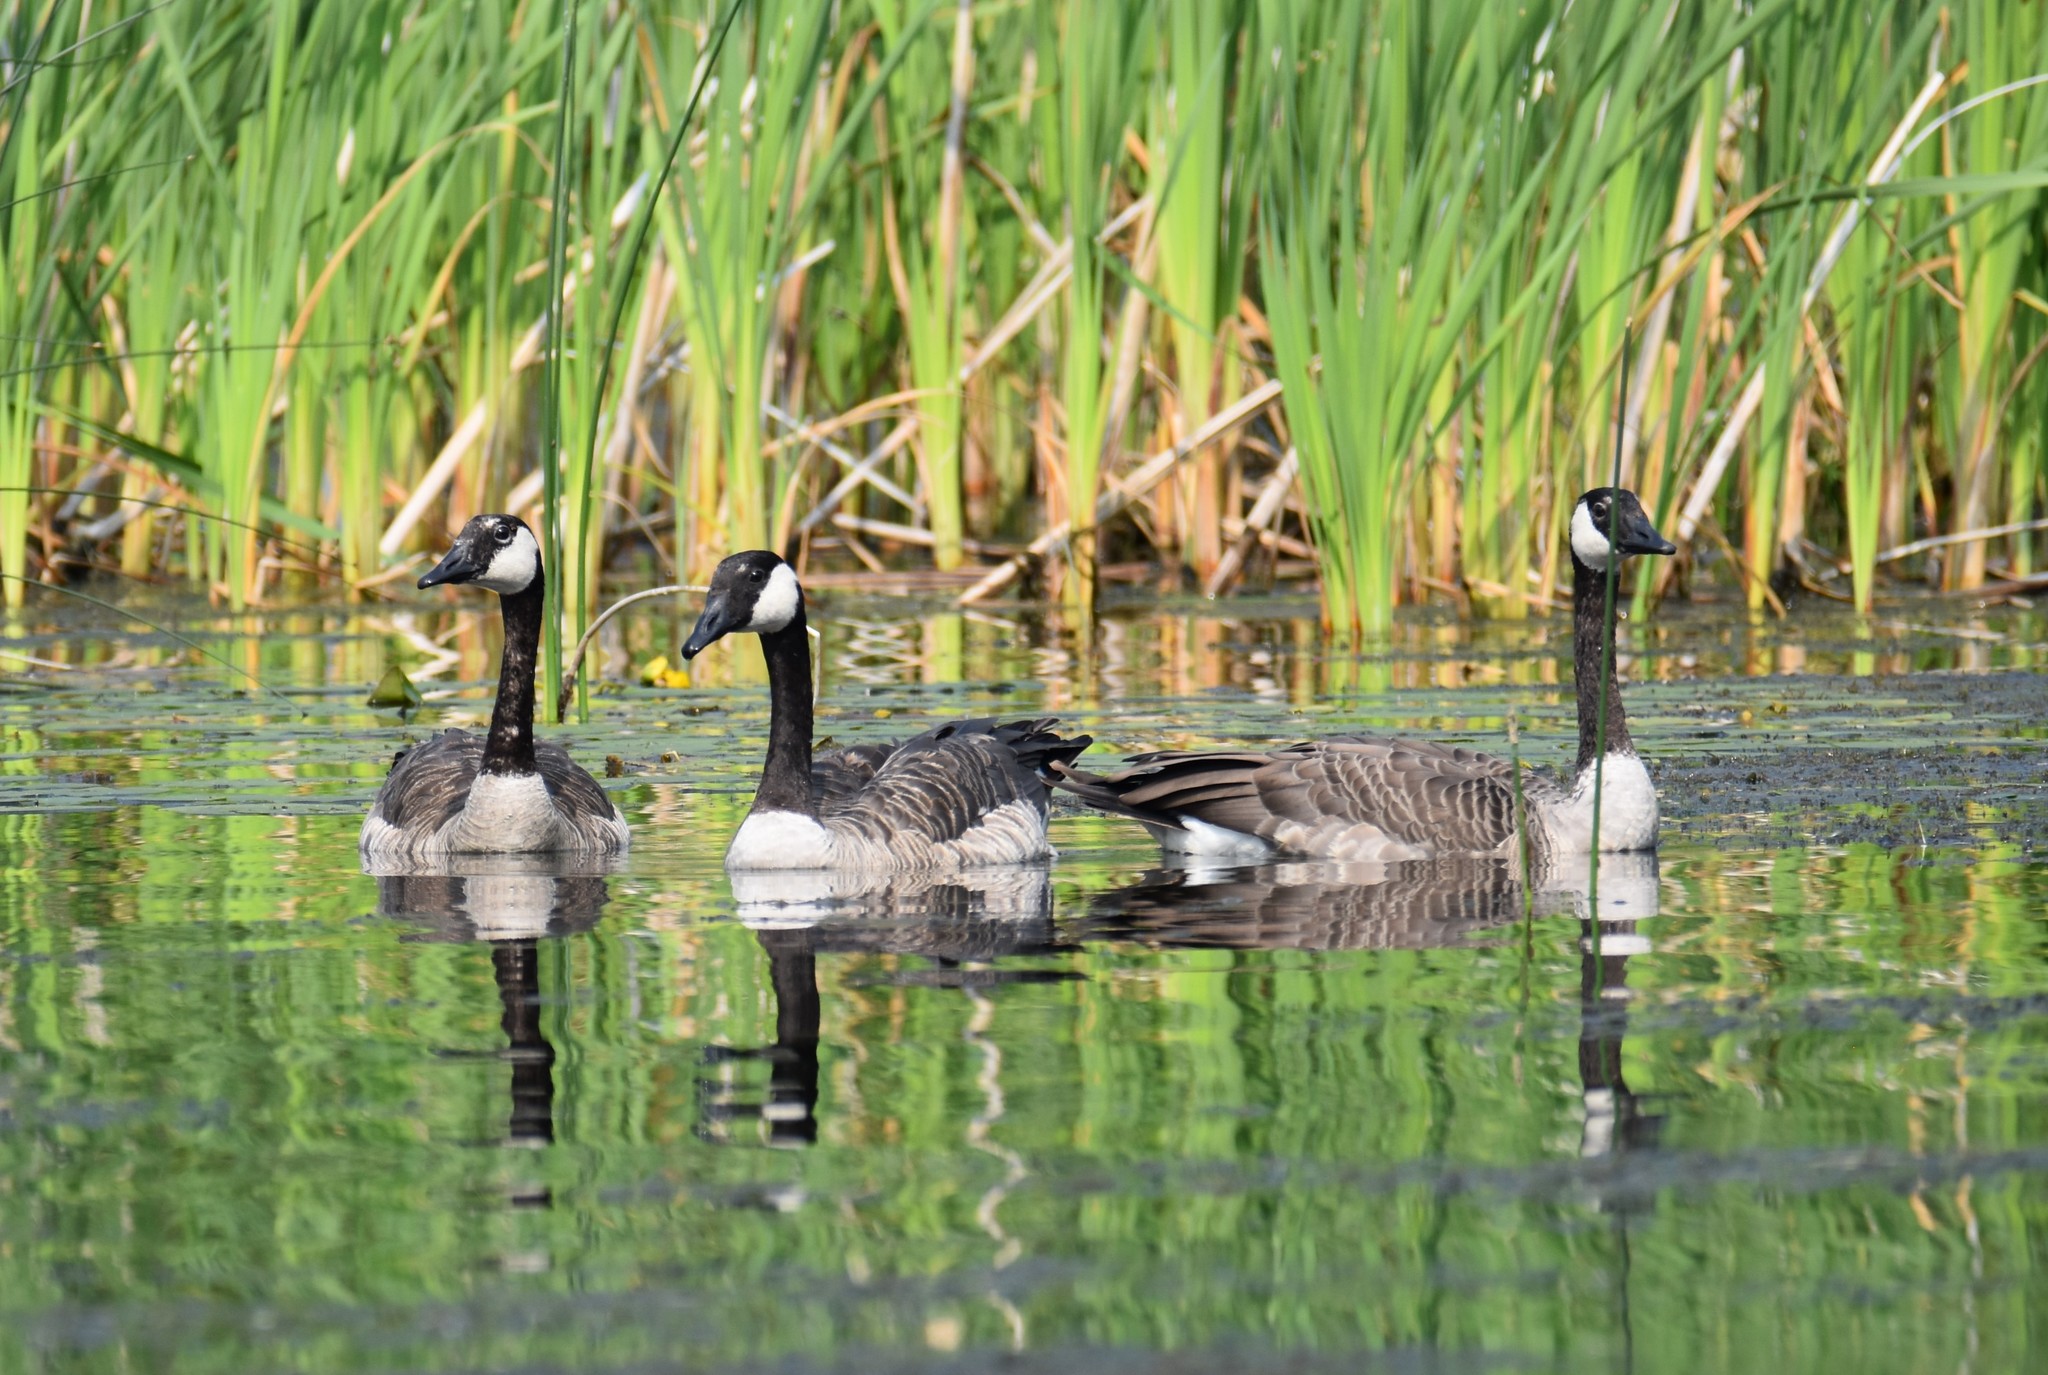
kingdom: Animalia
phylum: Chordata
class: Aves
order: Anseriformes
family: Anatidae
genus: Branta
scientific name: Branta canadensis
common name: Canada goose
